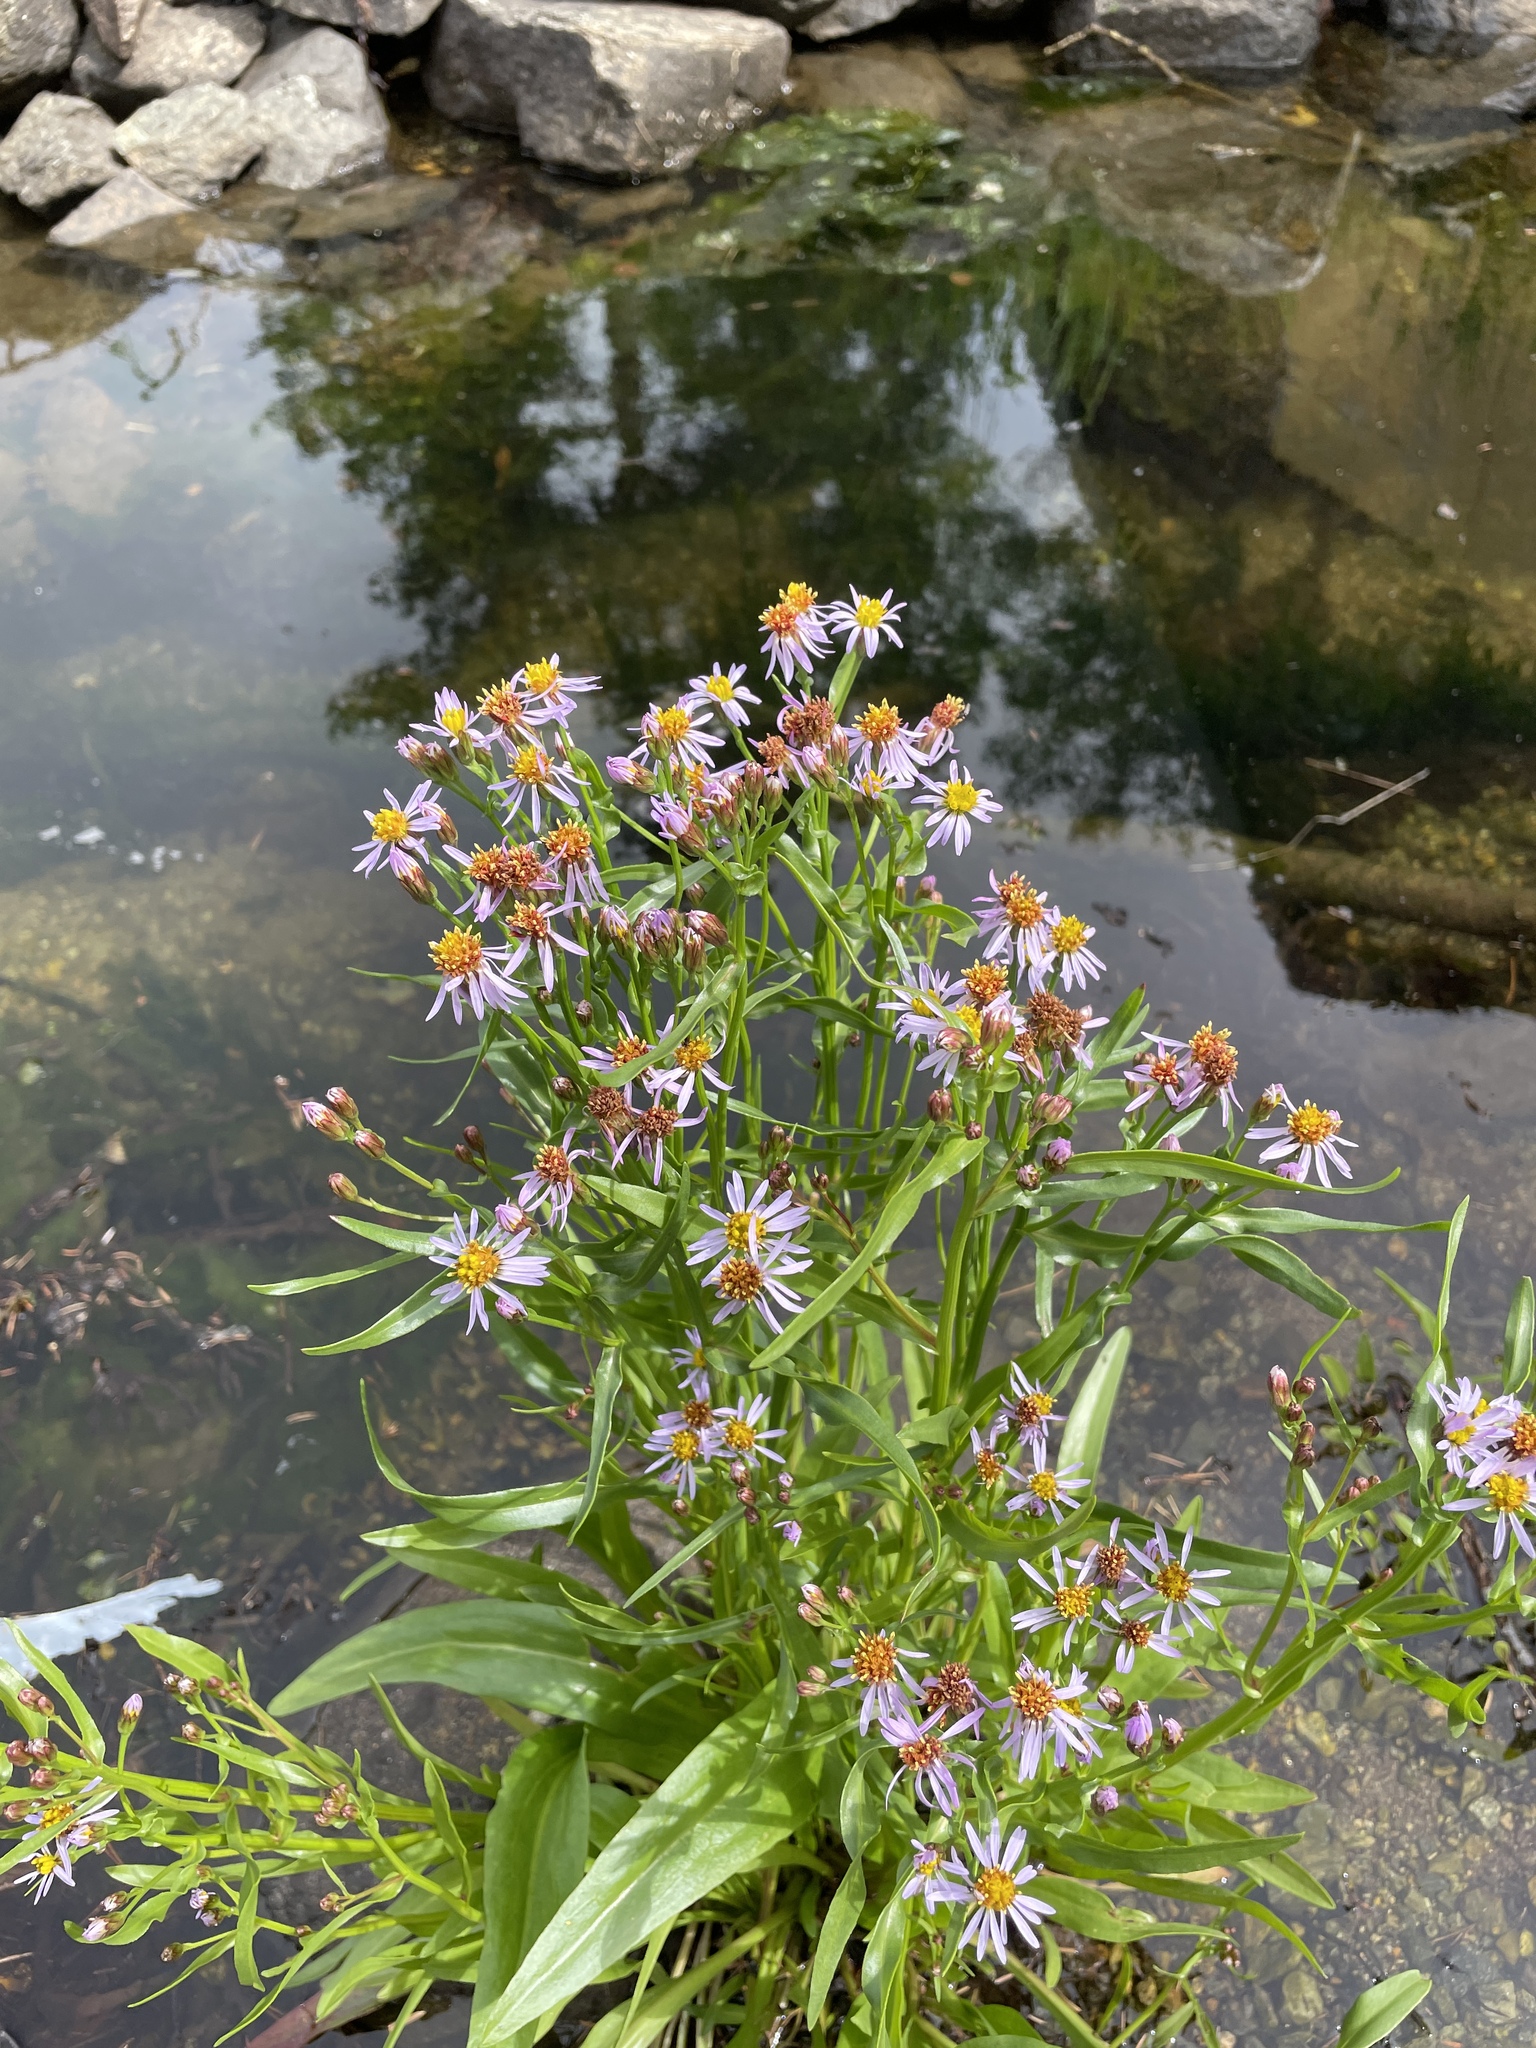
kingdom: Plantae
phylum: Tracheophyta
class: Magnoliopsida
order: Asterales
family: Asteraceae
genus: Tripolium
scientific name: Tripolium pannonicum
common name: Sea aster
